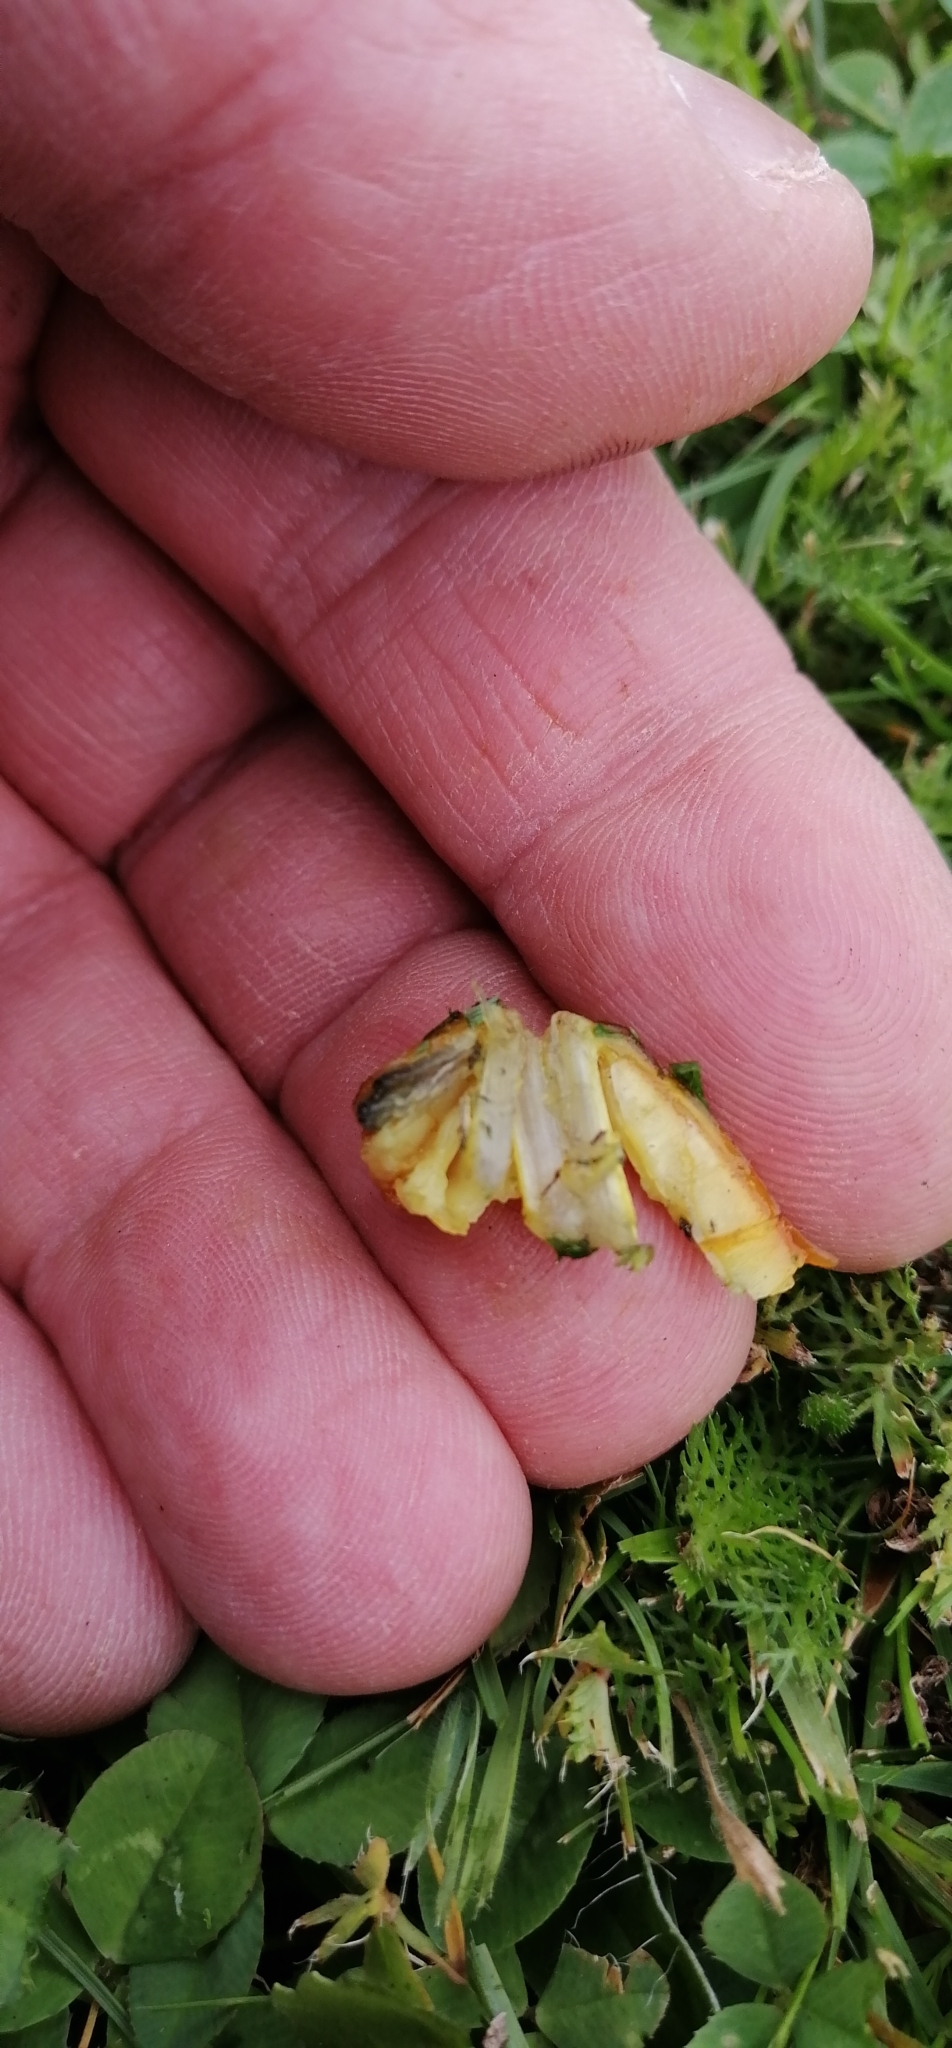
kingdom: Fungi
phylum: Basidiomycota
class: Agaricomycetes
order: Agaricales
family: Hygrophoraceae
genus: Hygrocybe
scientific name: Hygrocybe conica
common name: Blackening wax-cap
